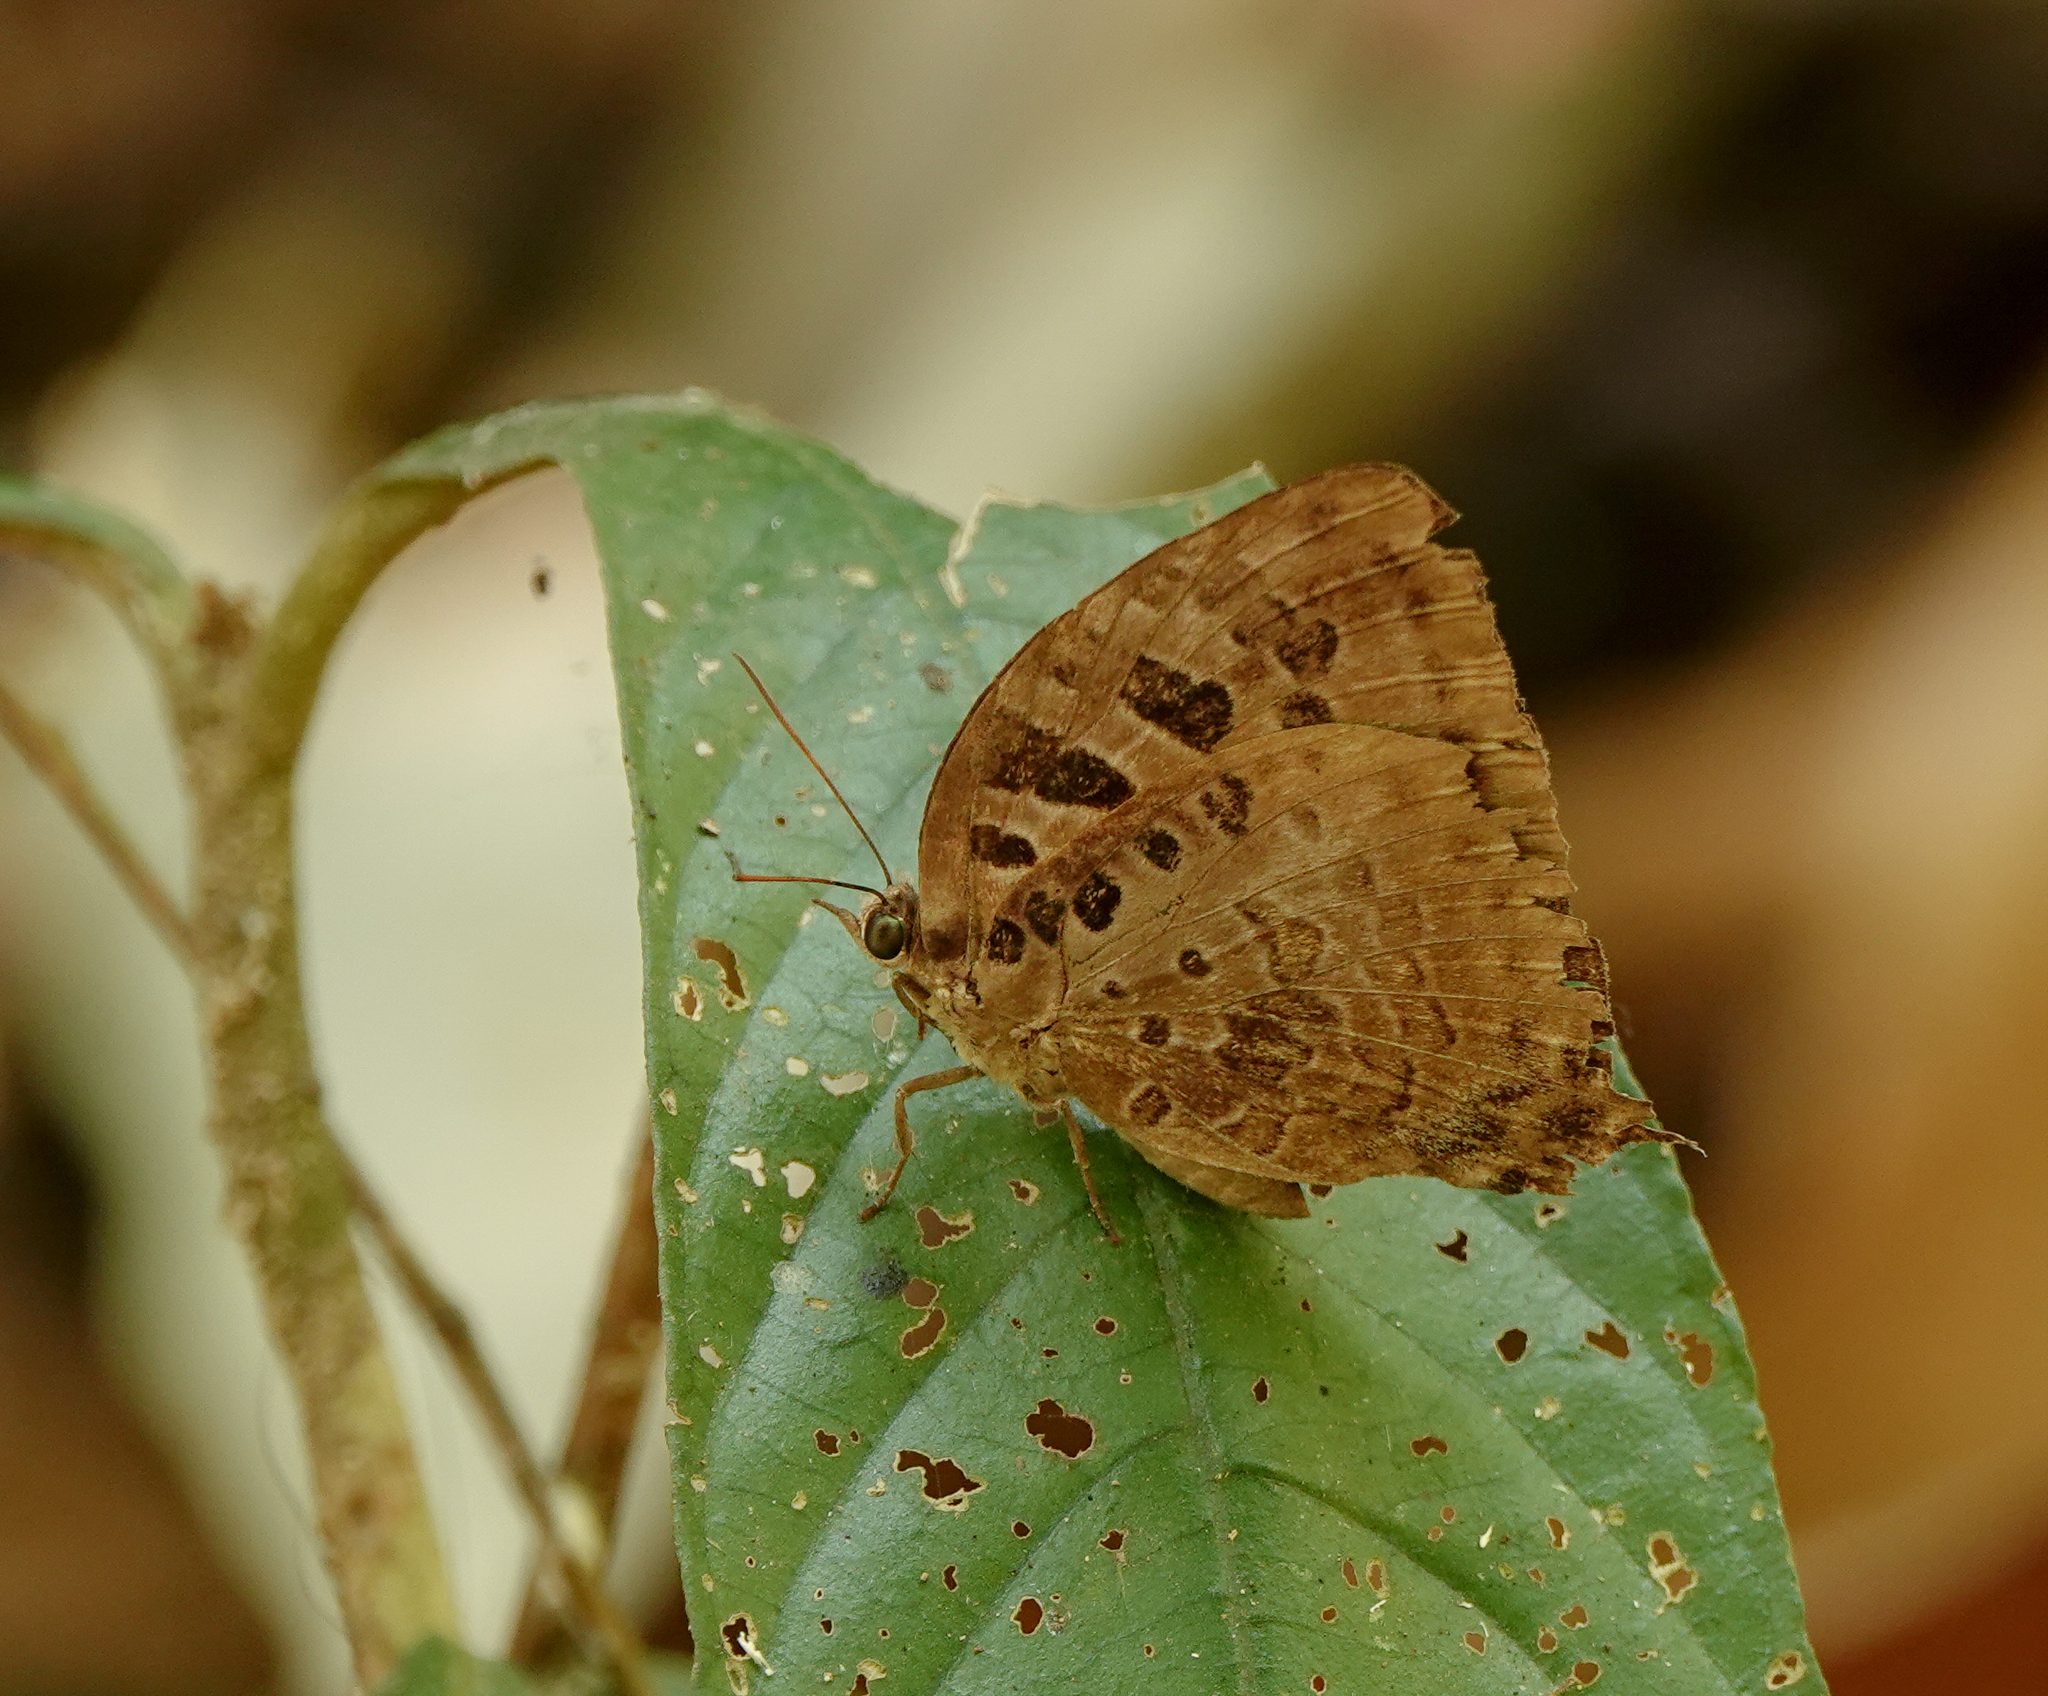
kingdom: Animalia
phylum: Arthropoda
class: Insecta
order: Lepidoptera
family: Lycaenidae
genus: Arhopala
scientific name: Arhopala anthelus
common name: Bushblue
